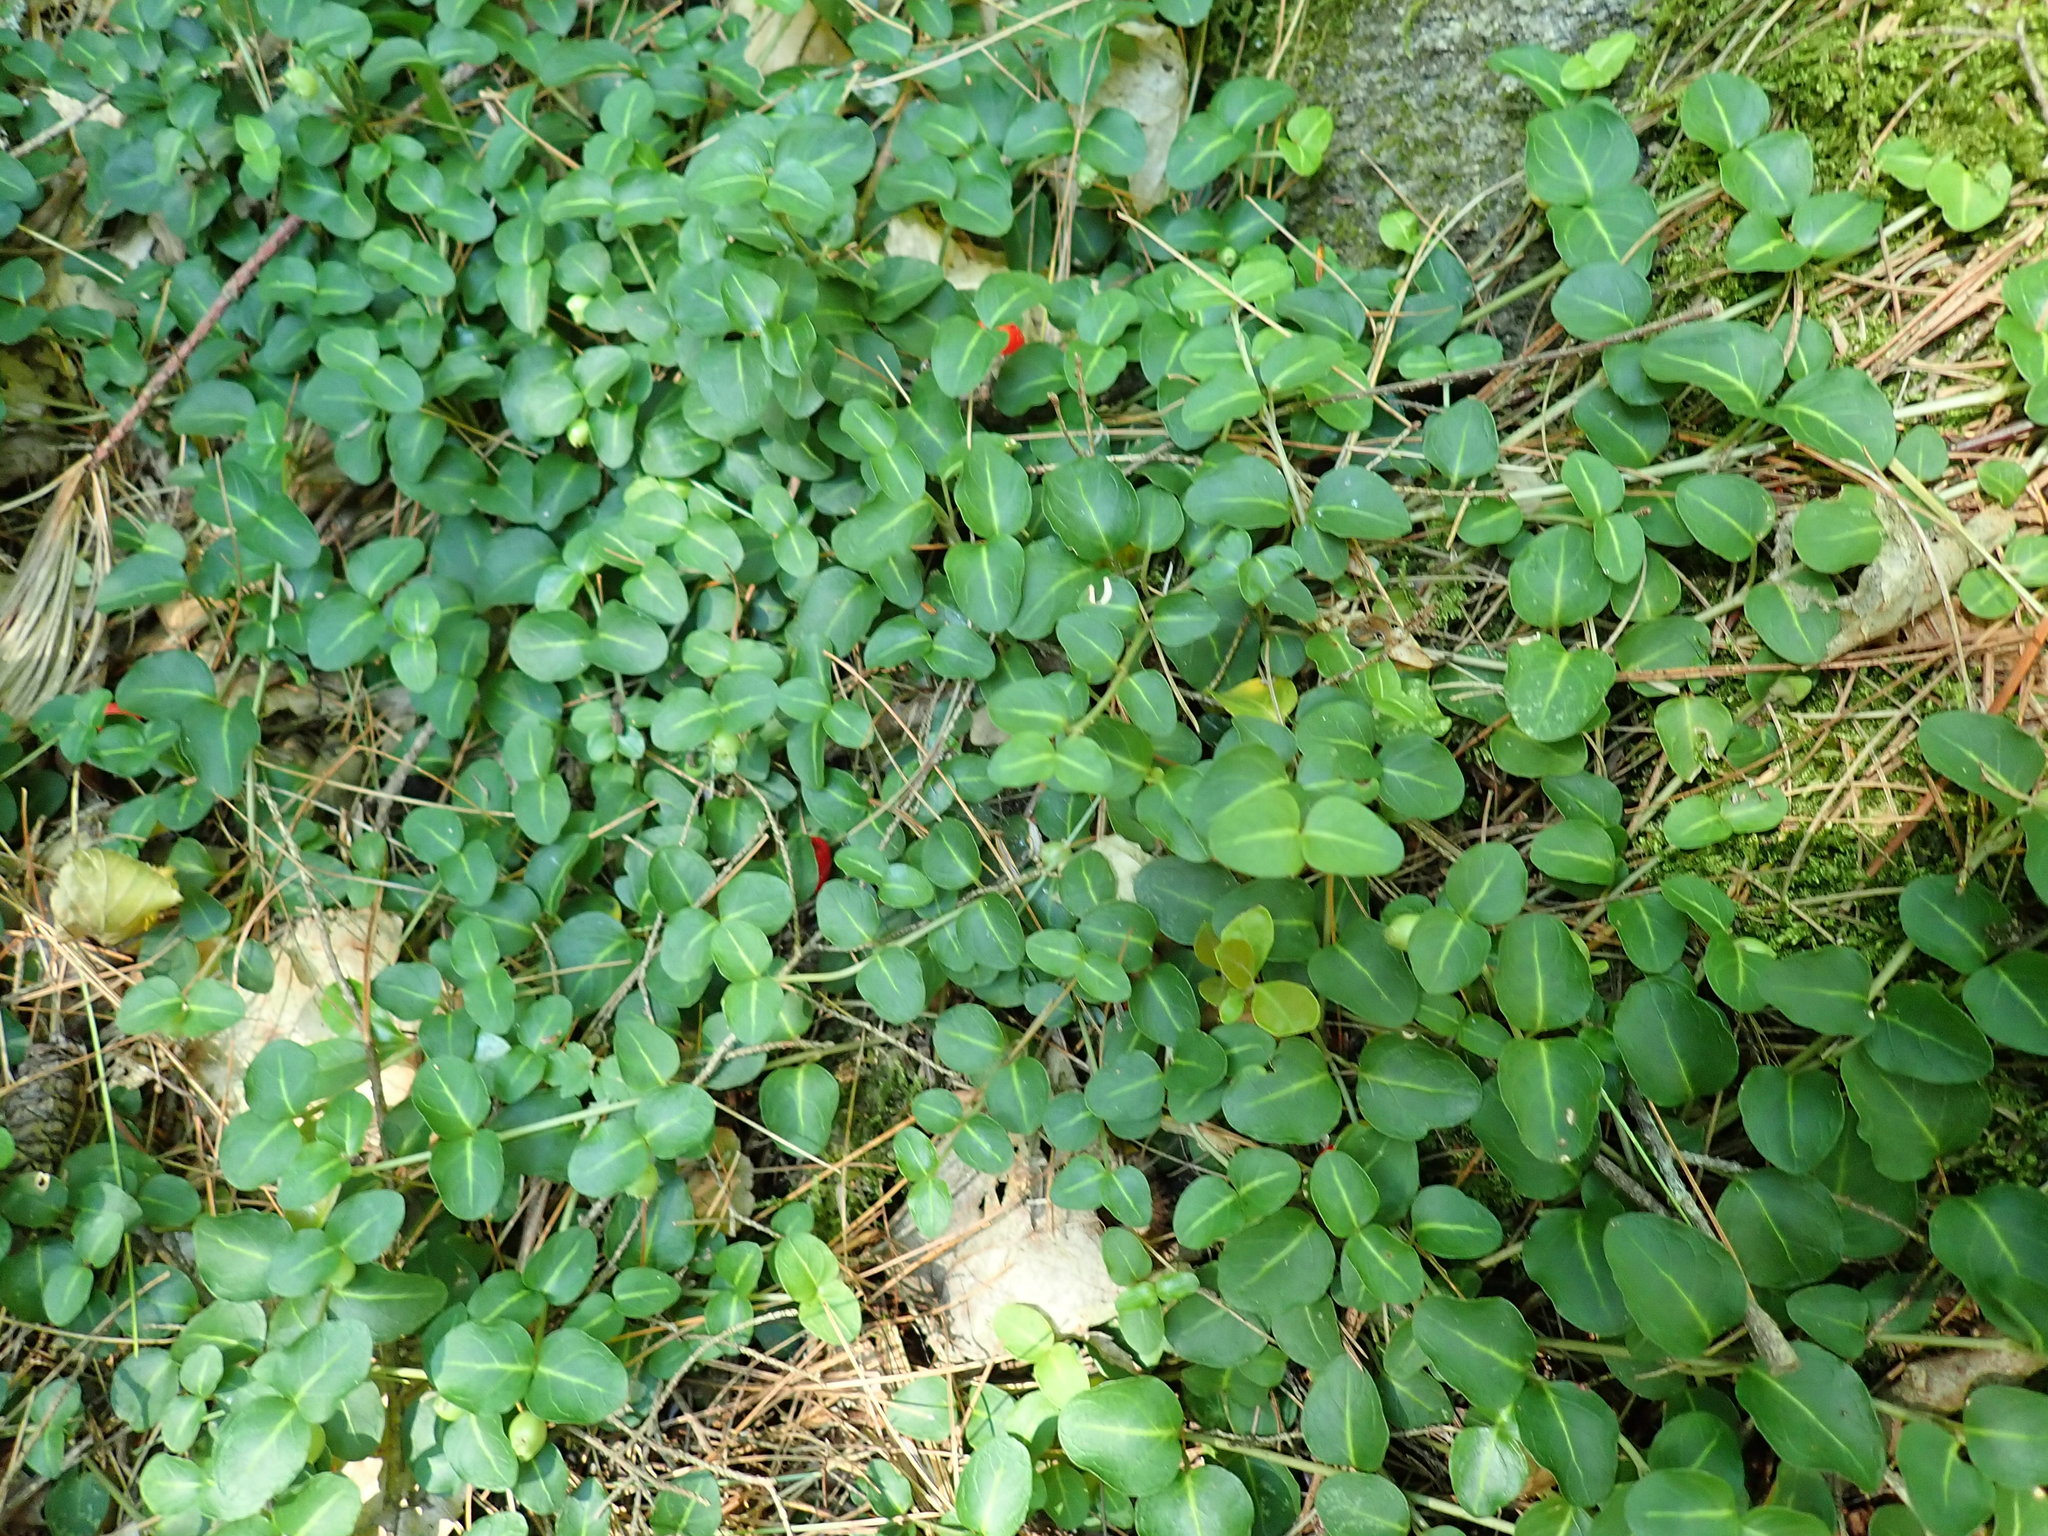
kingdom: Plantae
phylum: Tracheophyta
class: Magnoliopsida
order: Gentianales
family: Rubiaceae
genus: Mitchella
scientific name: Mitchella repens
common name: Partridge-berry
